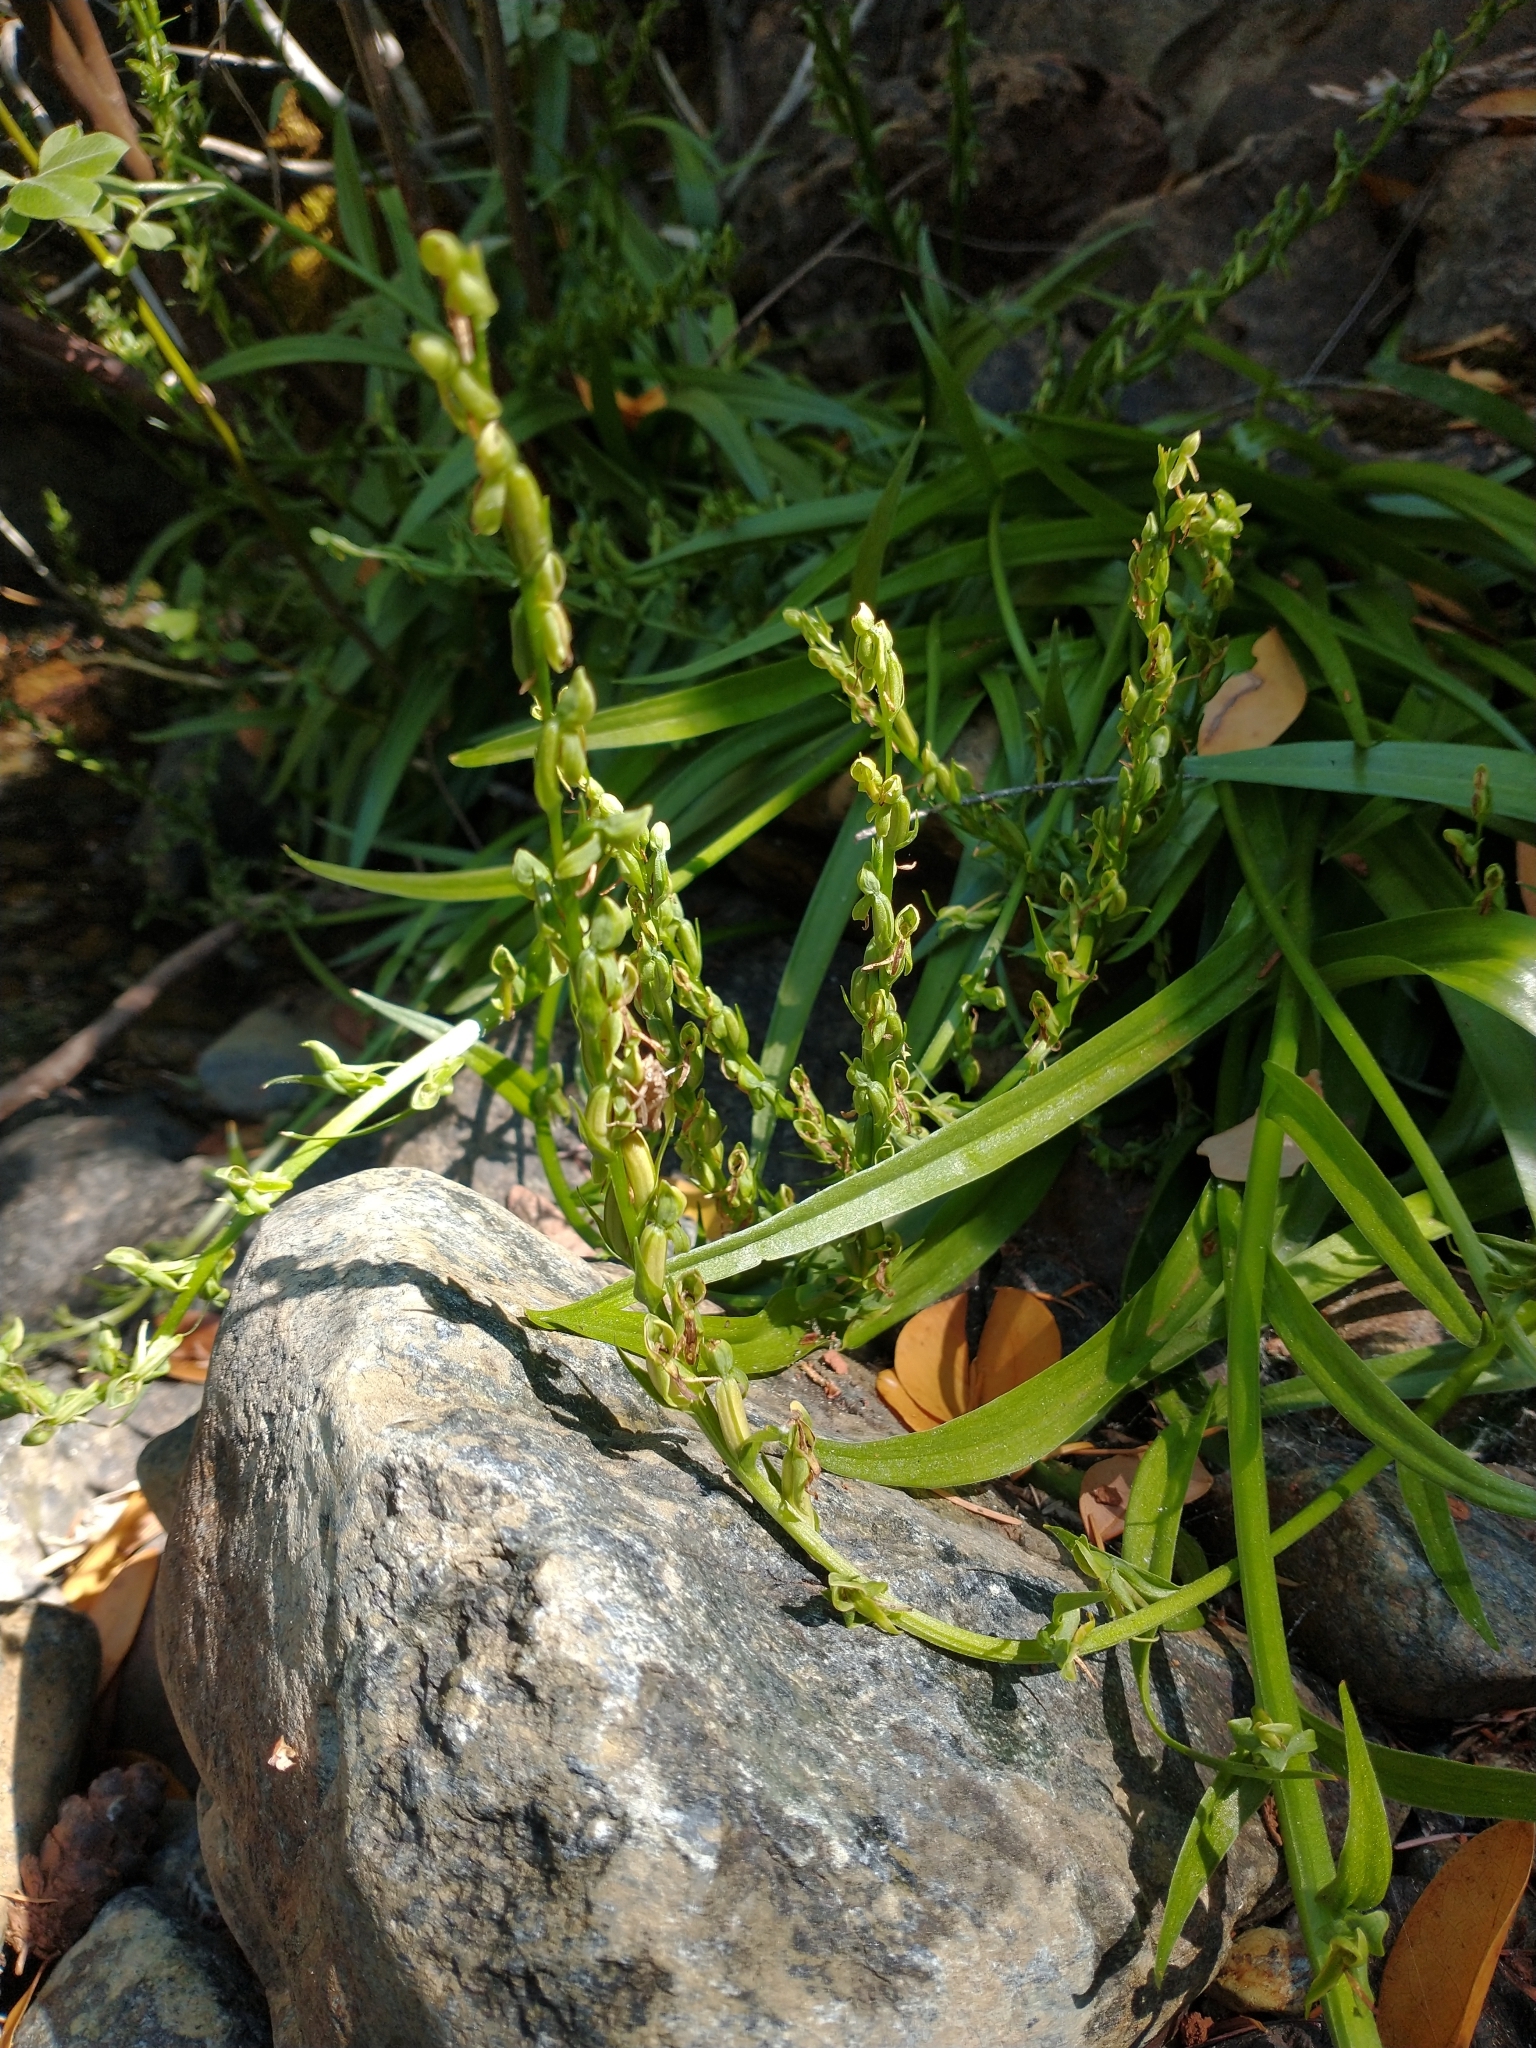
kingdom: Plantae
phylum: Tracheophyta
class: Liliopsida
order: Asparagales
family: Orchidaceae
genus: Platanthera
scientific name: Platanthera sparsiflora
